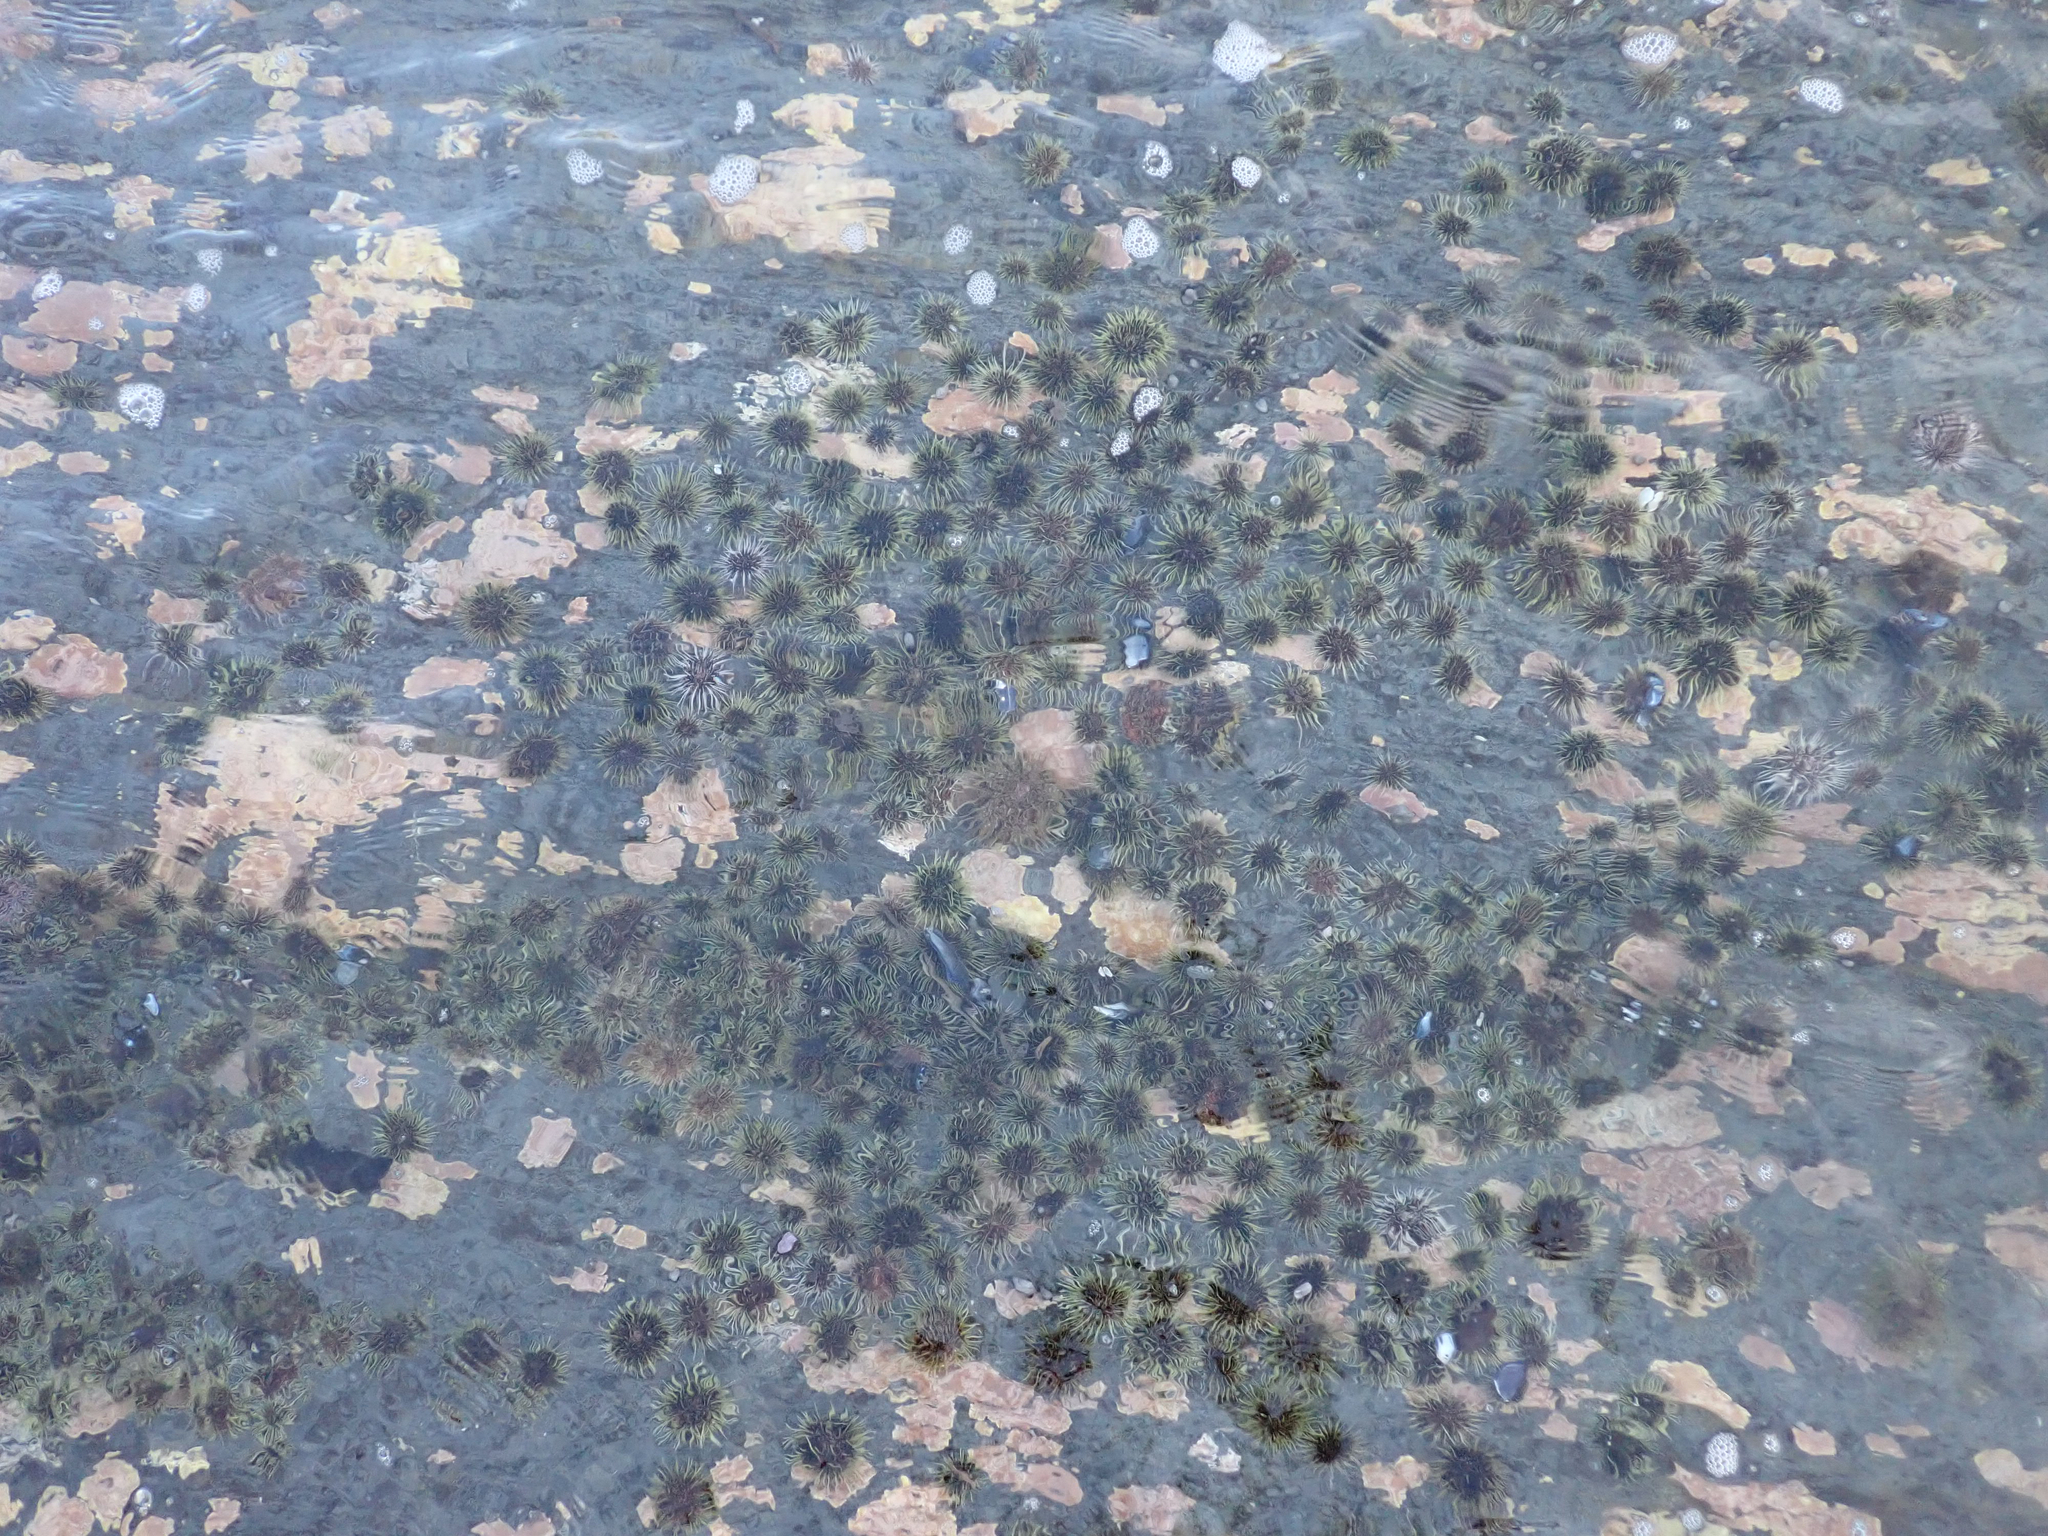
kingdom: Animalia
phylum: Echinodermata
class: Echinoidea
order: Camarodonta
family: Strongylocentrotidae
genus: Strongylocentrotus
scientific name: Strongylocentrotus droebachiensis
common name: Northern sea urchin
